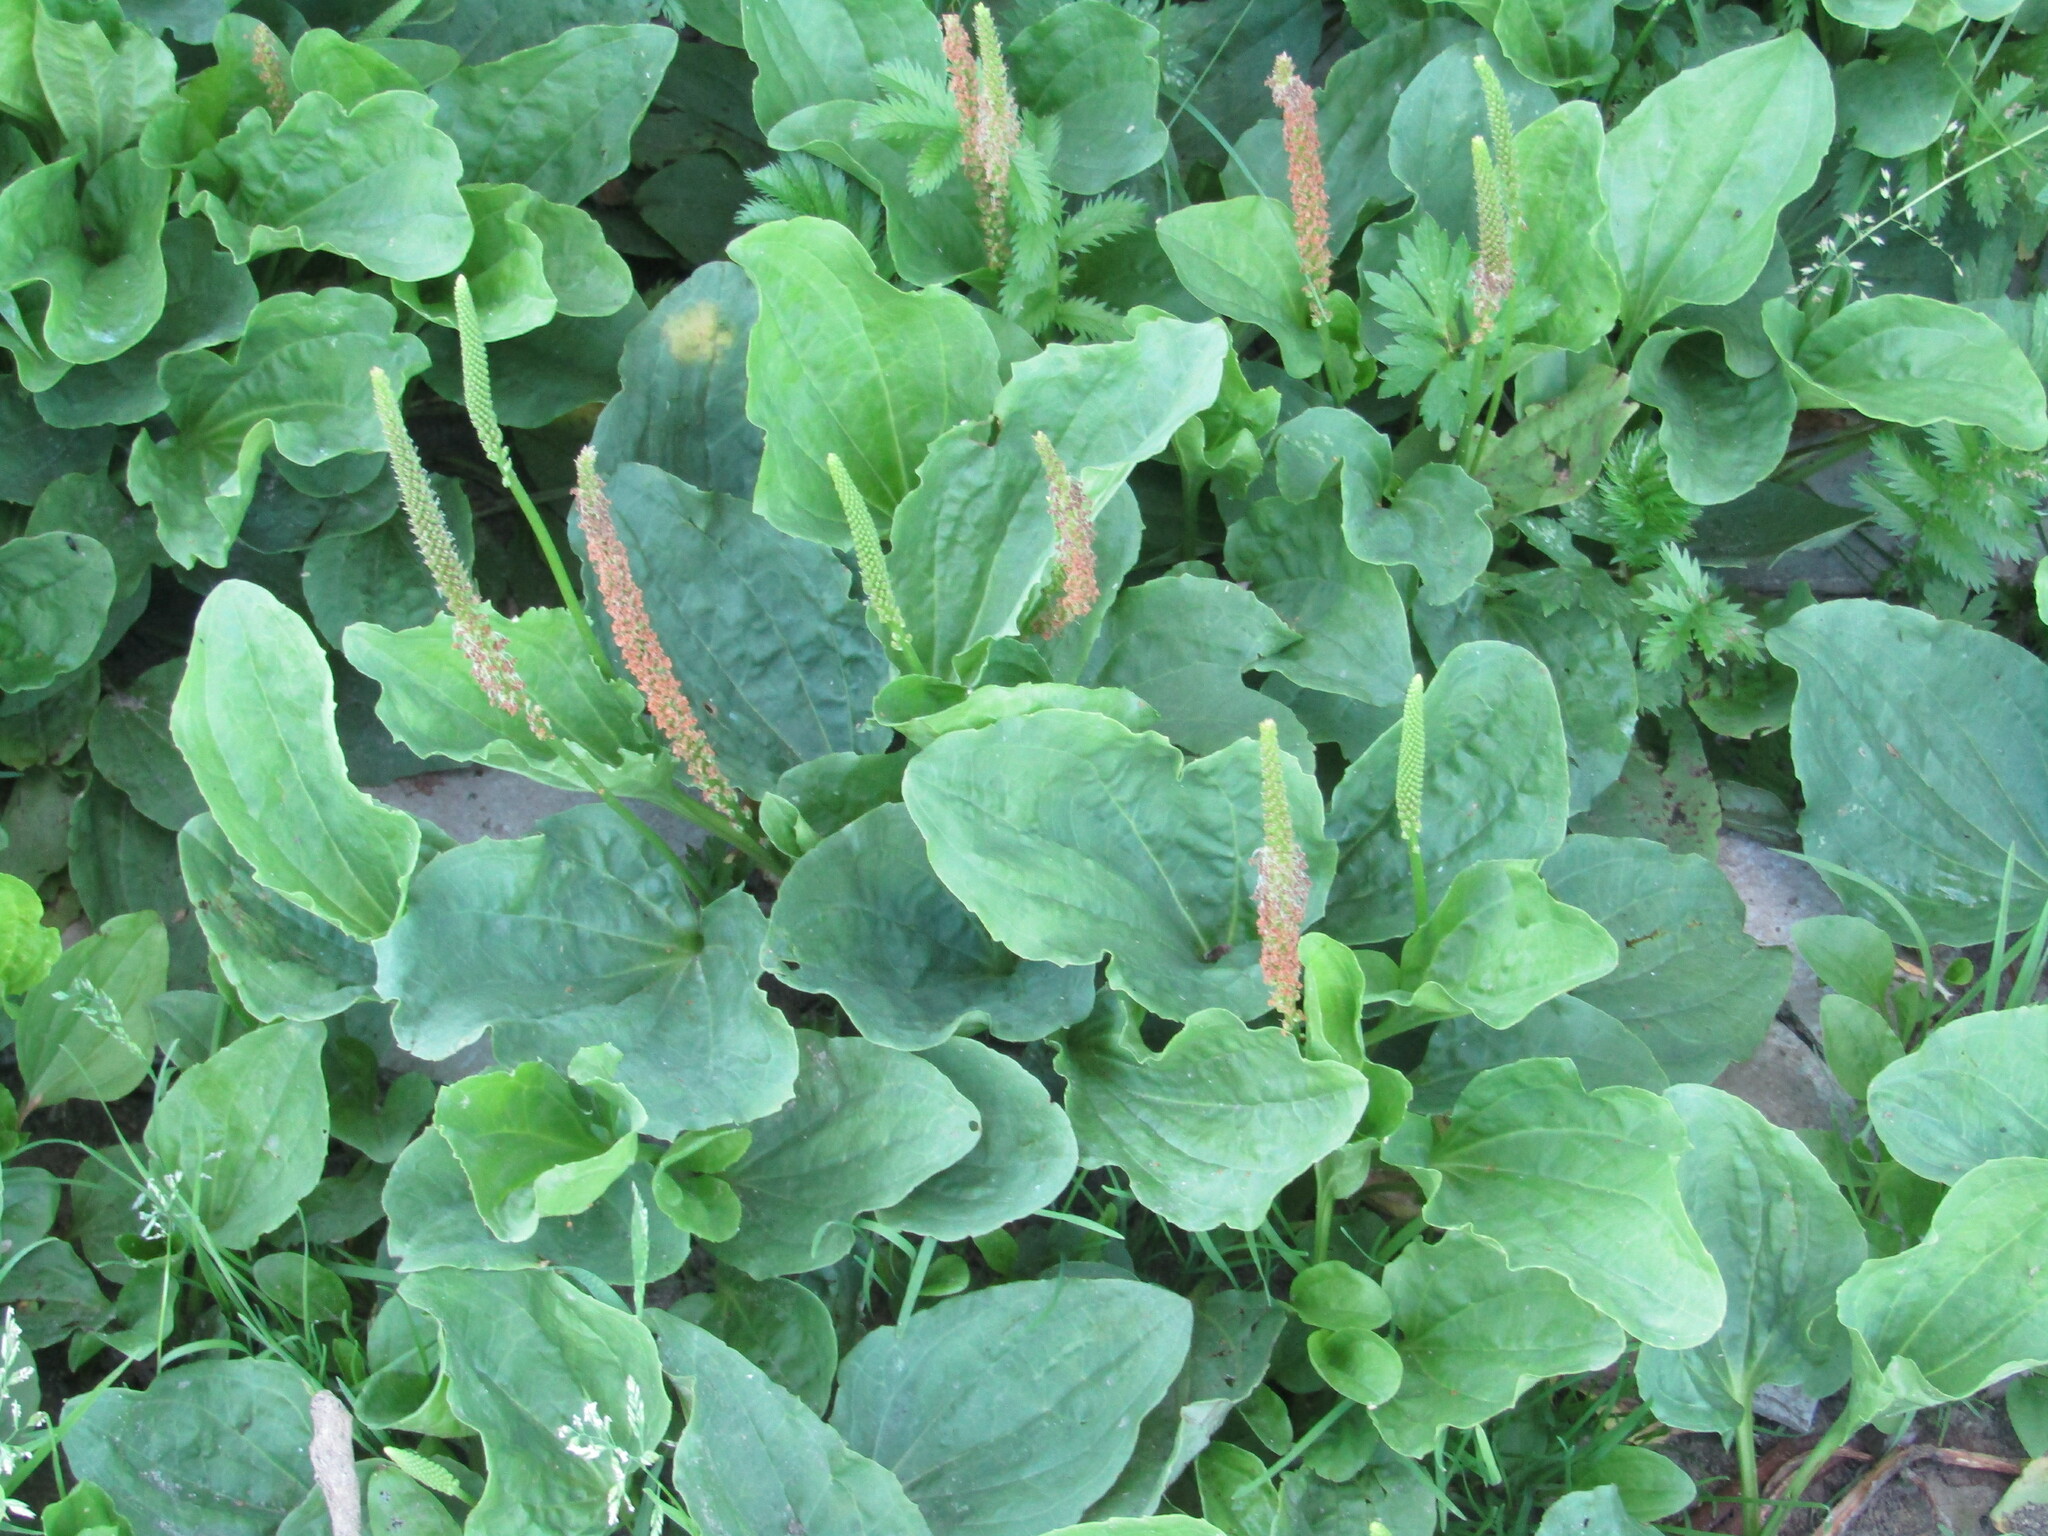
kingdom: Plantae
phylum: Tracheophyta
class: Magnoliopsida
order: Lamiales
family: Plantaginaceae
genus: Plantago
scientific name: Plantago major
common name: Common plantain
